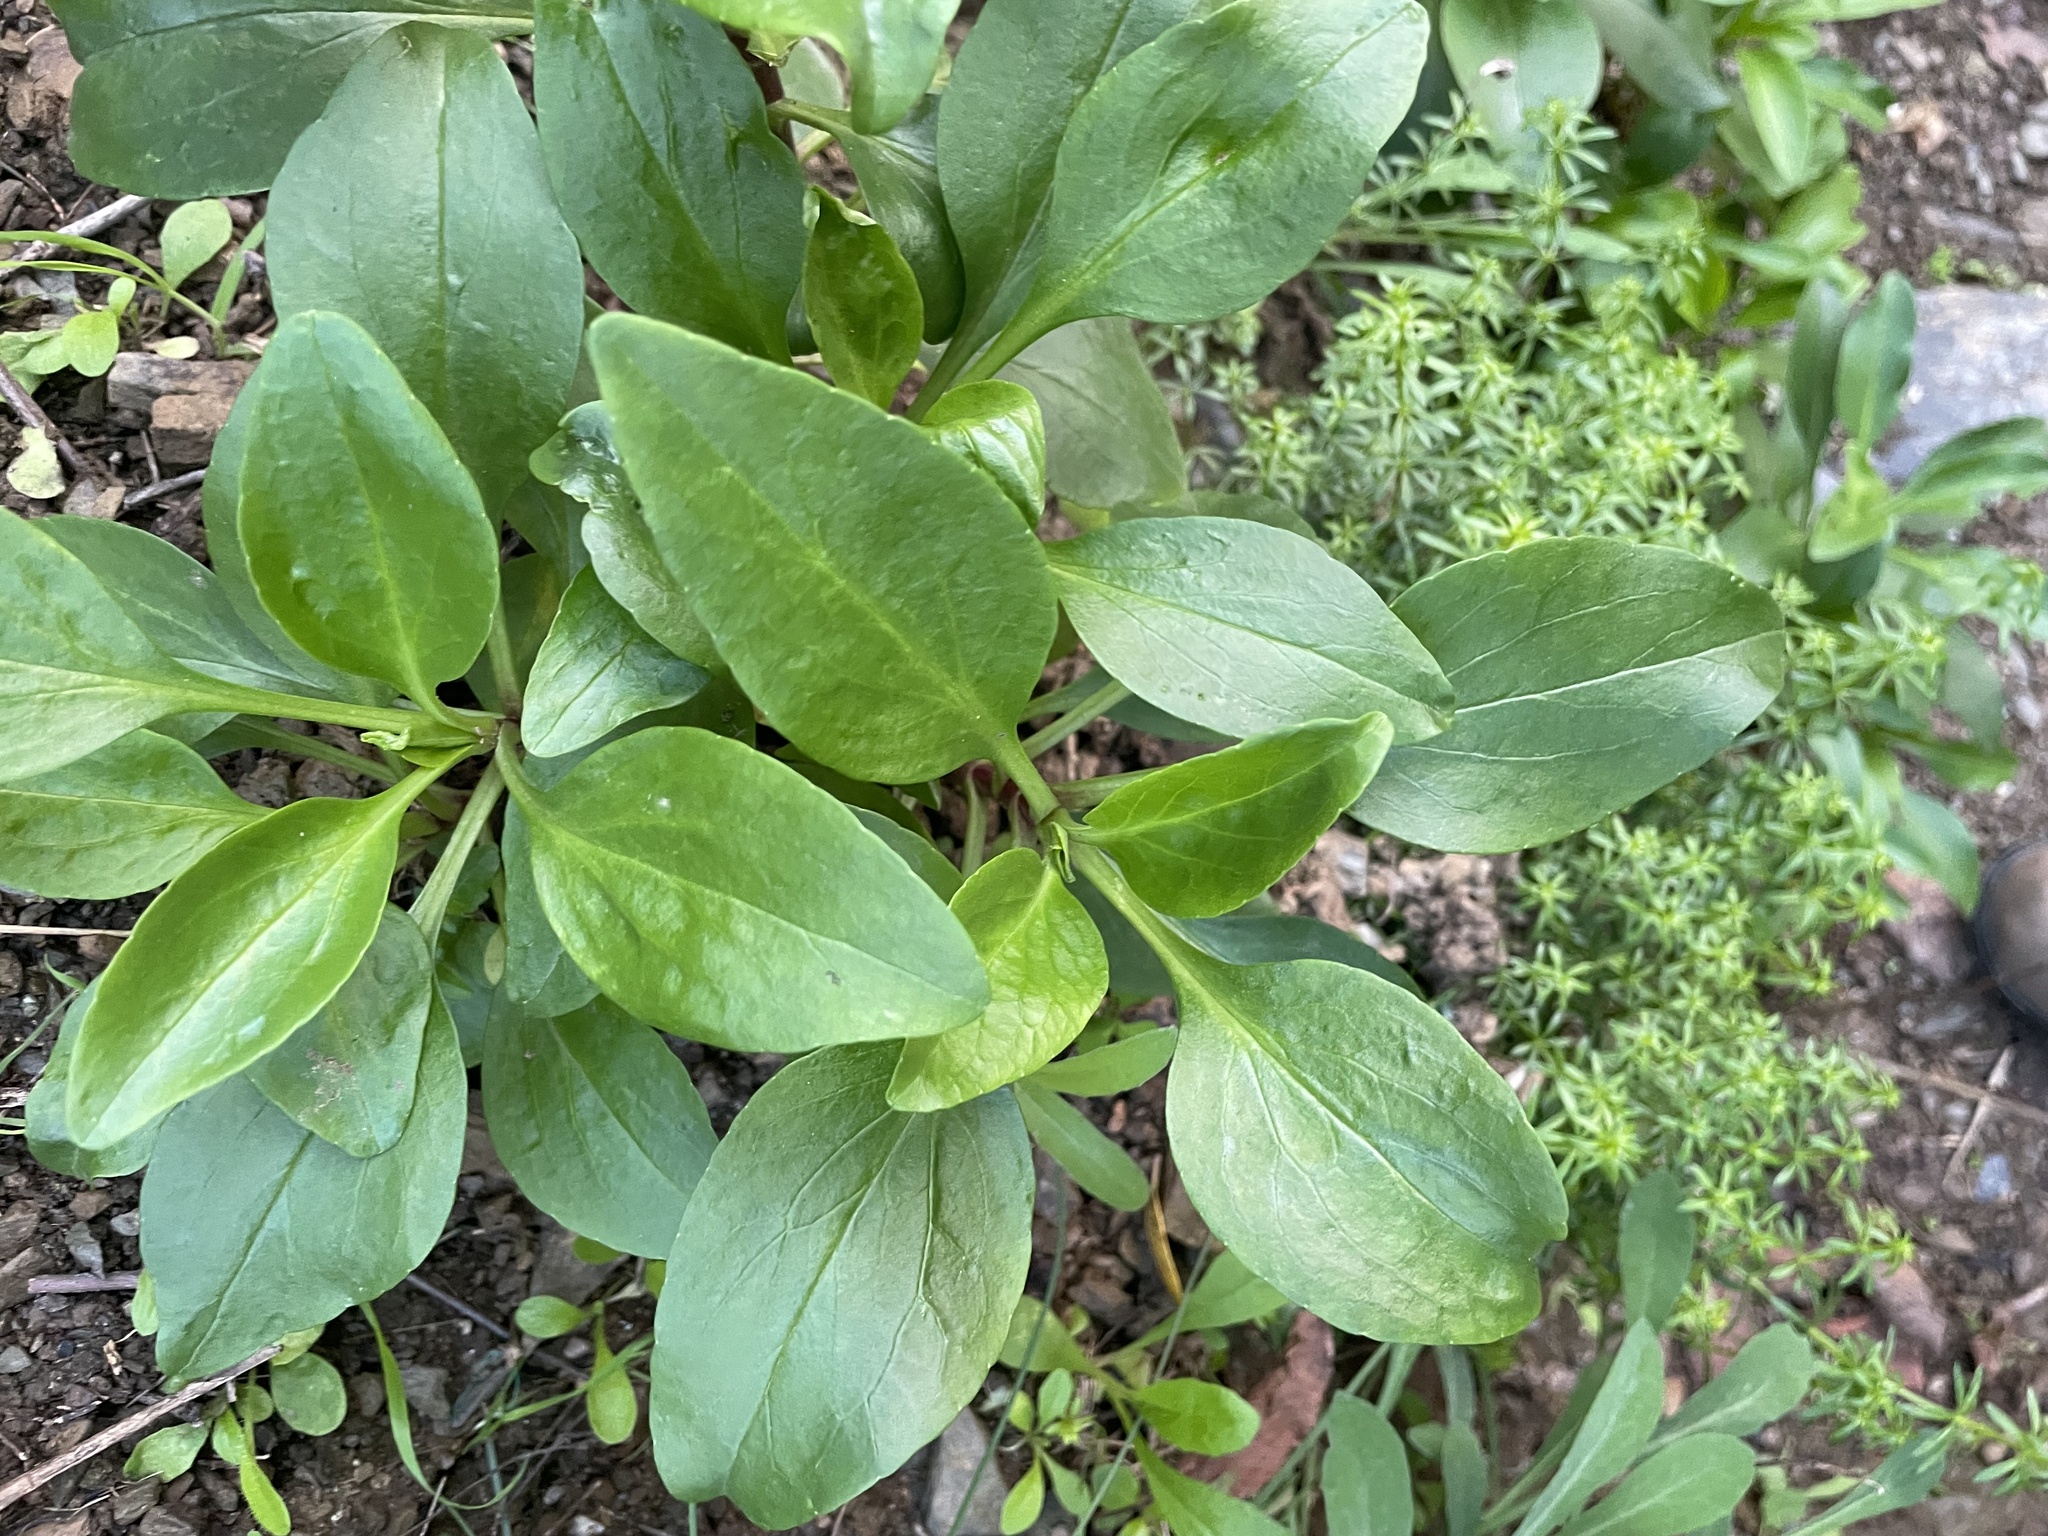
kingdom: Plantae
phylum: Tracheophyta
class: Magnoliopsida
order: Dipsacales
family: Caprifoliaceae
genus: Centranthus
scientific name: Centranthus ruber
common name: Red valerian
